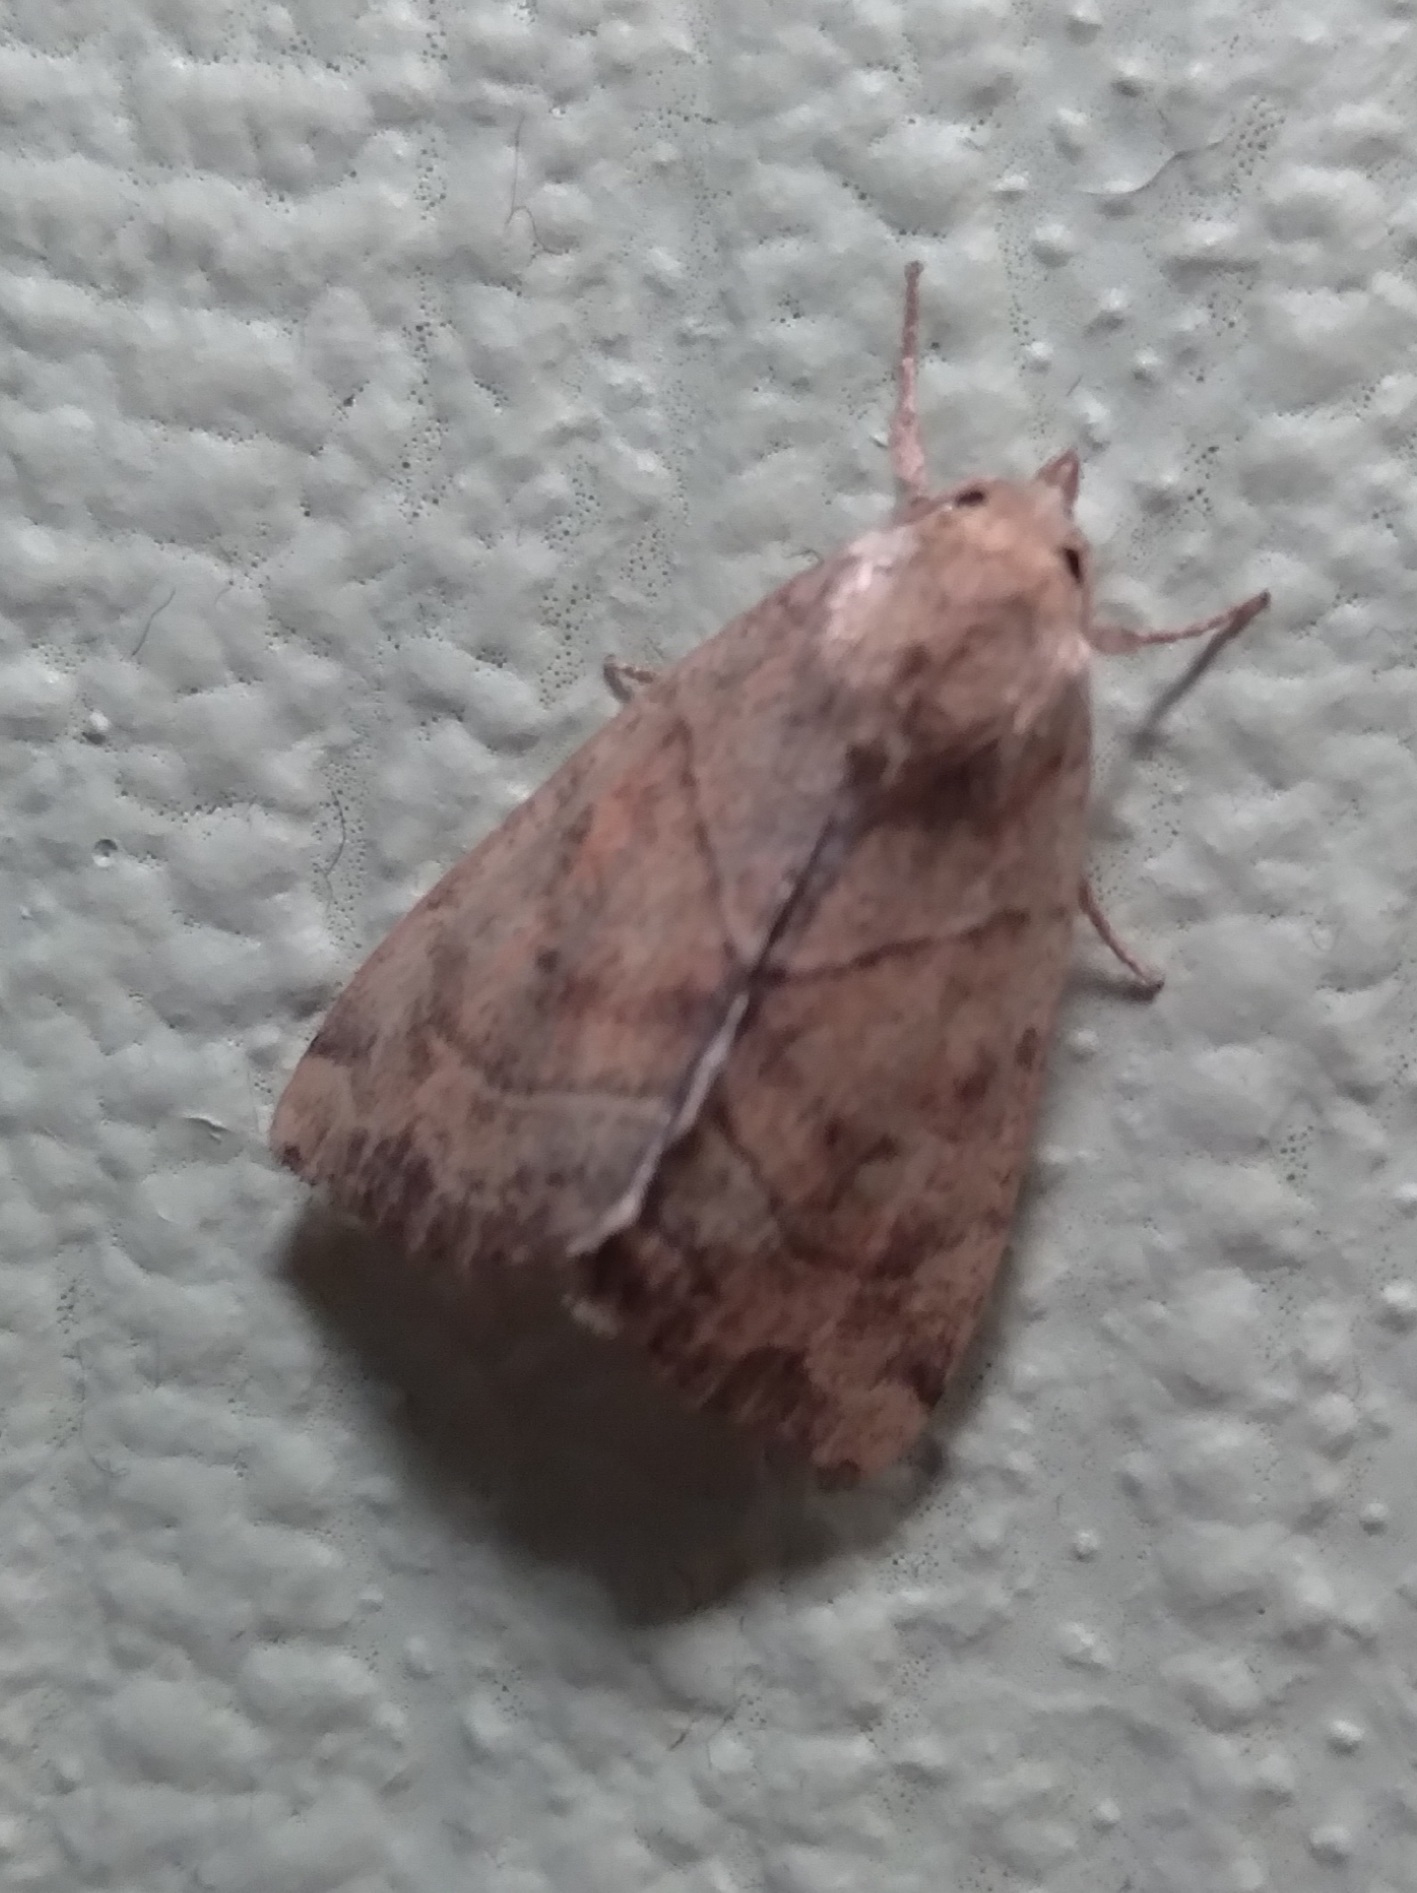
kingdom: Animalia
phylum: Arthropoda
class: Insecta
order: Lepidoptera
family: Noctuidae
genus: Cosmia
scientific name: Cosmia trapezina
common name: Dun-bar
